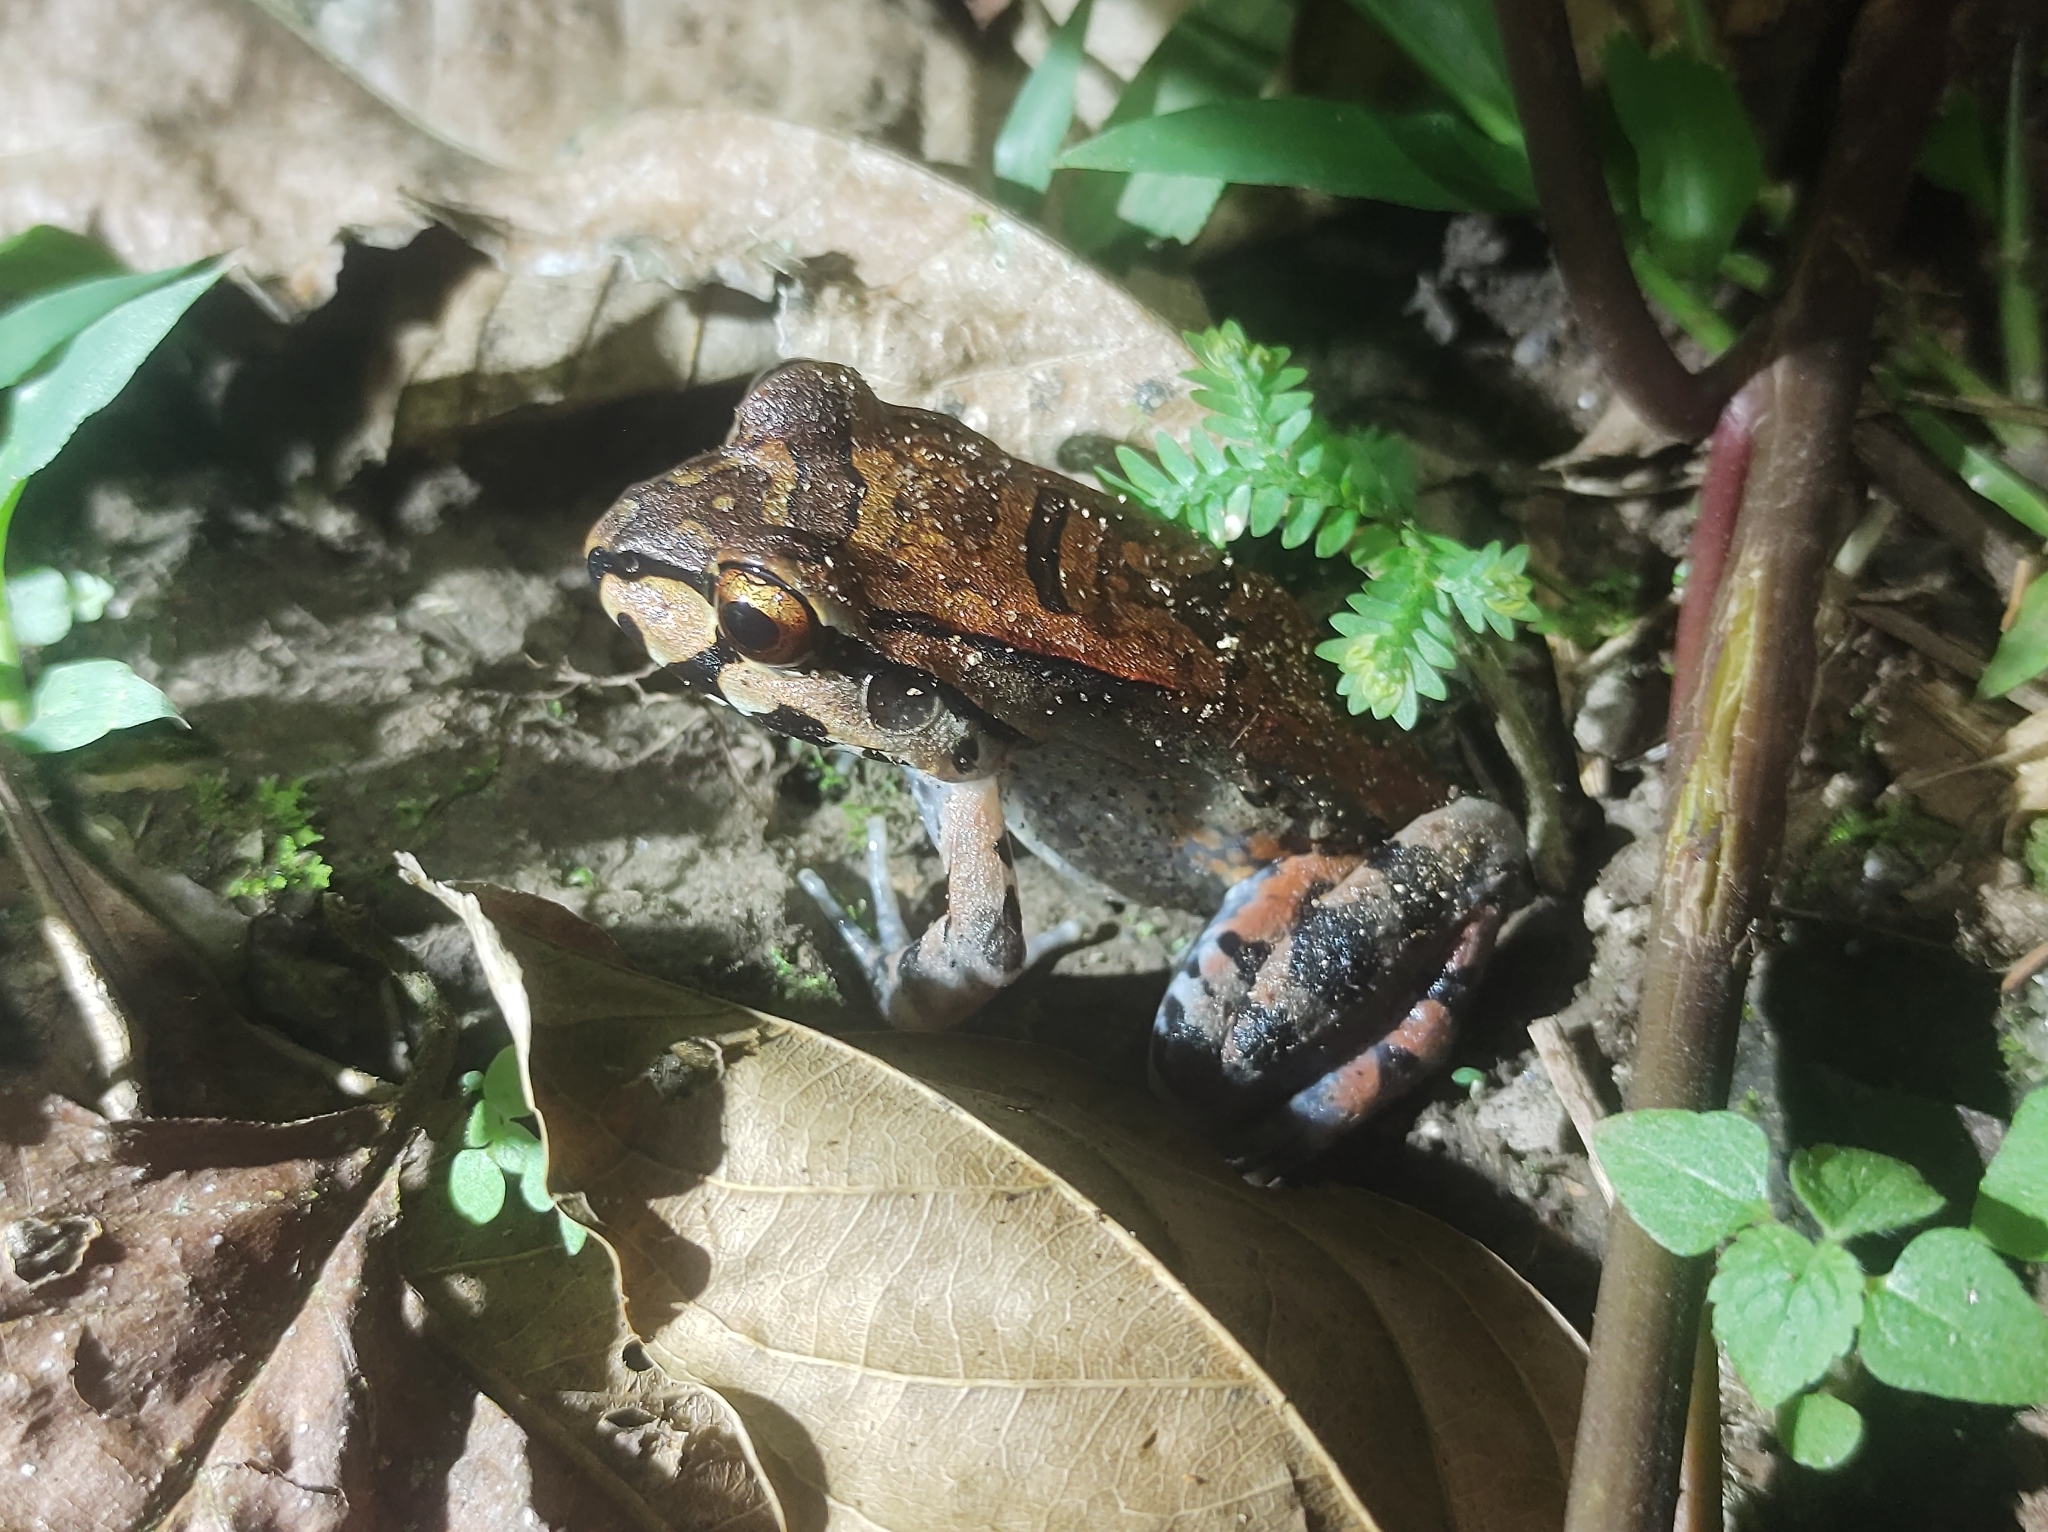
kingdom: Animalia
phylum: Chordata
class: Amphibia
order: Anura
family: Leptodactylidae
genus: Leptodactylus
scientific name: Leptodactylus savagei
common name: Savage's thin-toed frog
